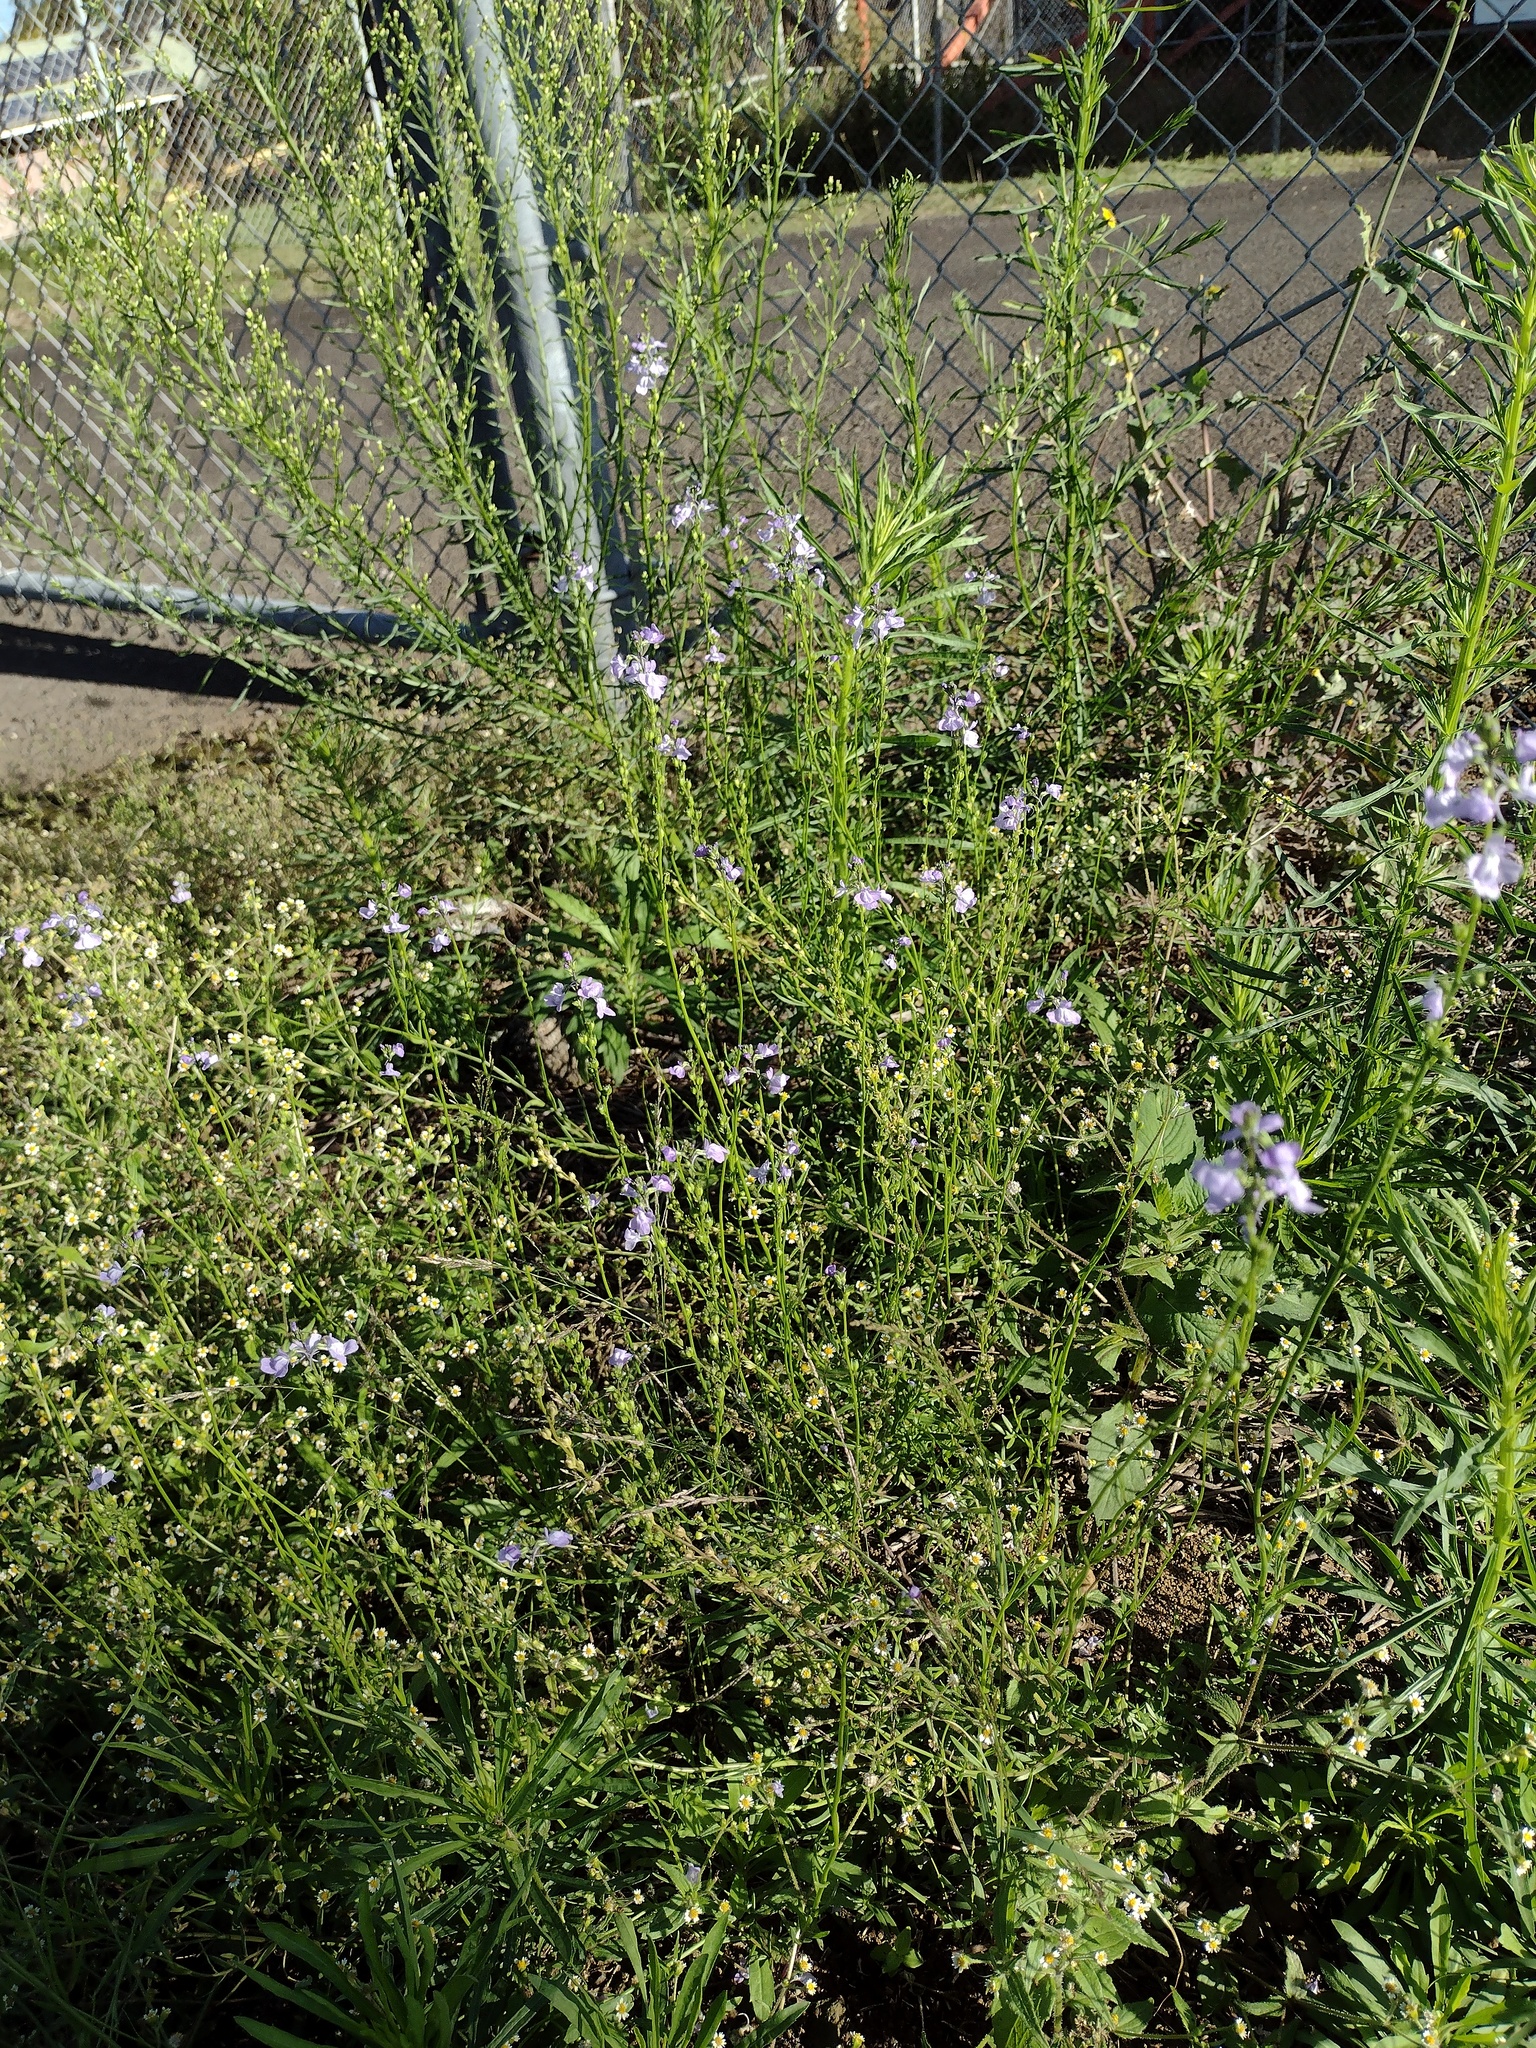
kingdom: Plantae
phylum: Tracheophyta
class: Magnoliopsida
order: Lamiales
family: Plantaginaceae
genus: Nuttallanthus
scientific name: Nuttallanthus texanus
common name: Texas toadflax
